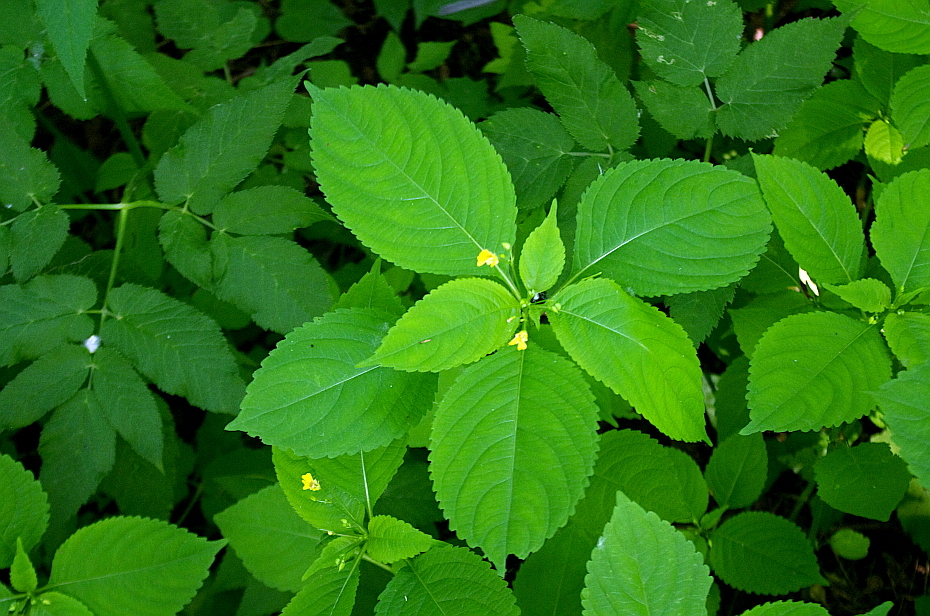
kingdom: Plantae
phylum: Tracheophyta
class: Magnoliopsida
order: Ericales
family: Balsaminaceae
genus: Impatiens
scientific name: Impatiens parviflora
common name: Small balsam
